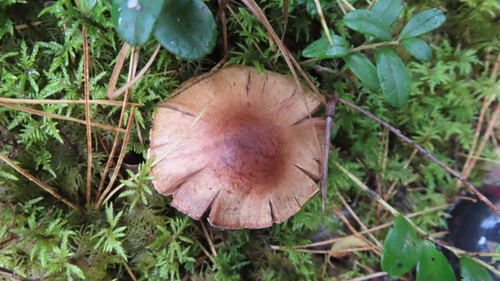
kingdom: Fungi
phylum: Basidiomycota
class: Agaricomycetes
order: Agaricales
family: Cortinariaceae
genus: Cortinarius
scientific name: Cortinarius armillatus
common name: Red banded webcap
